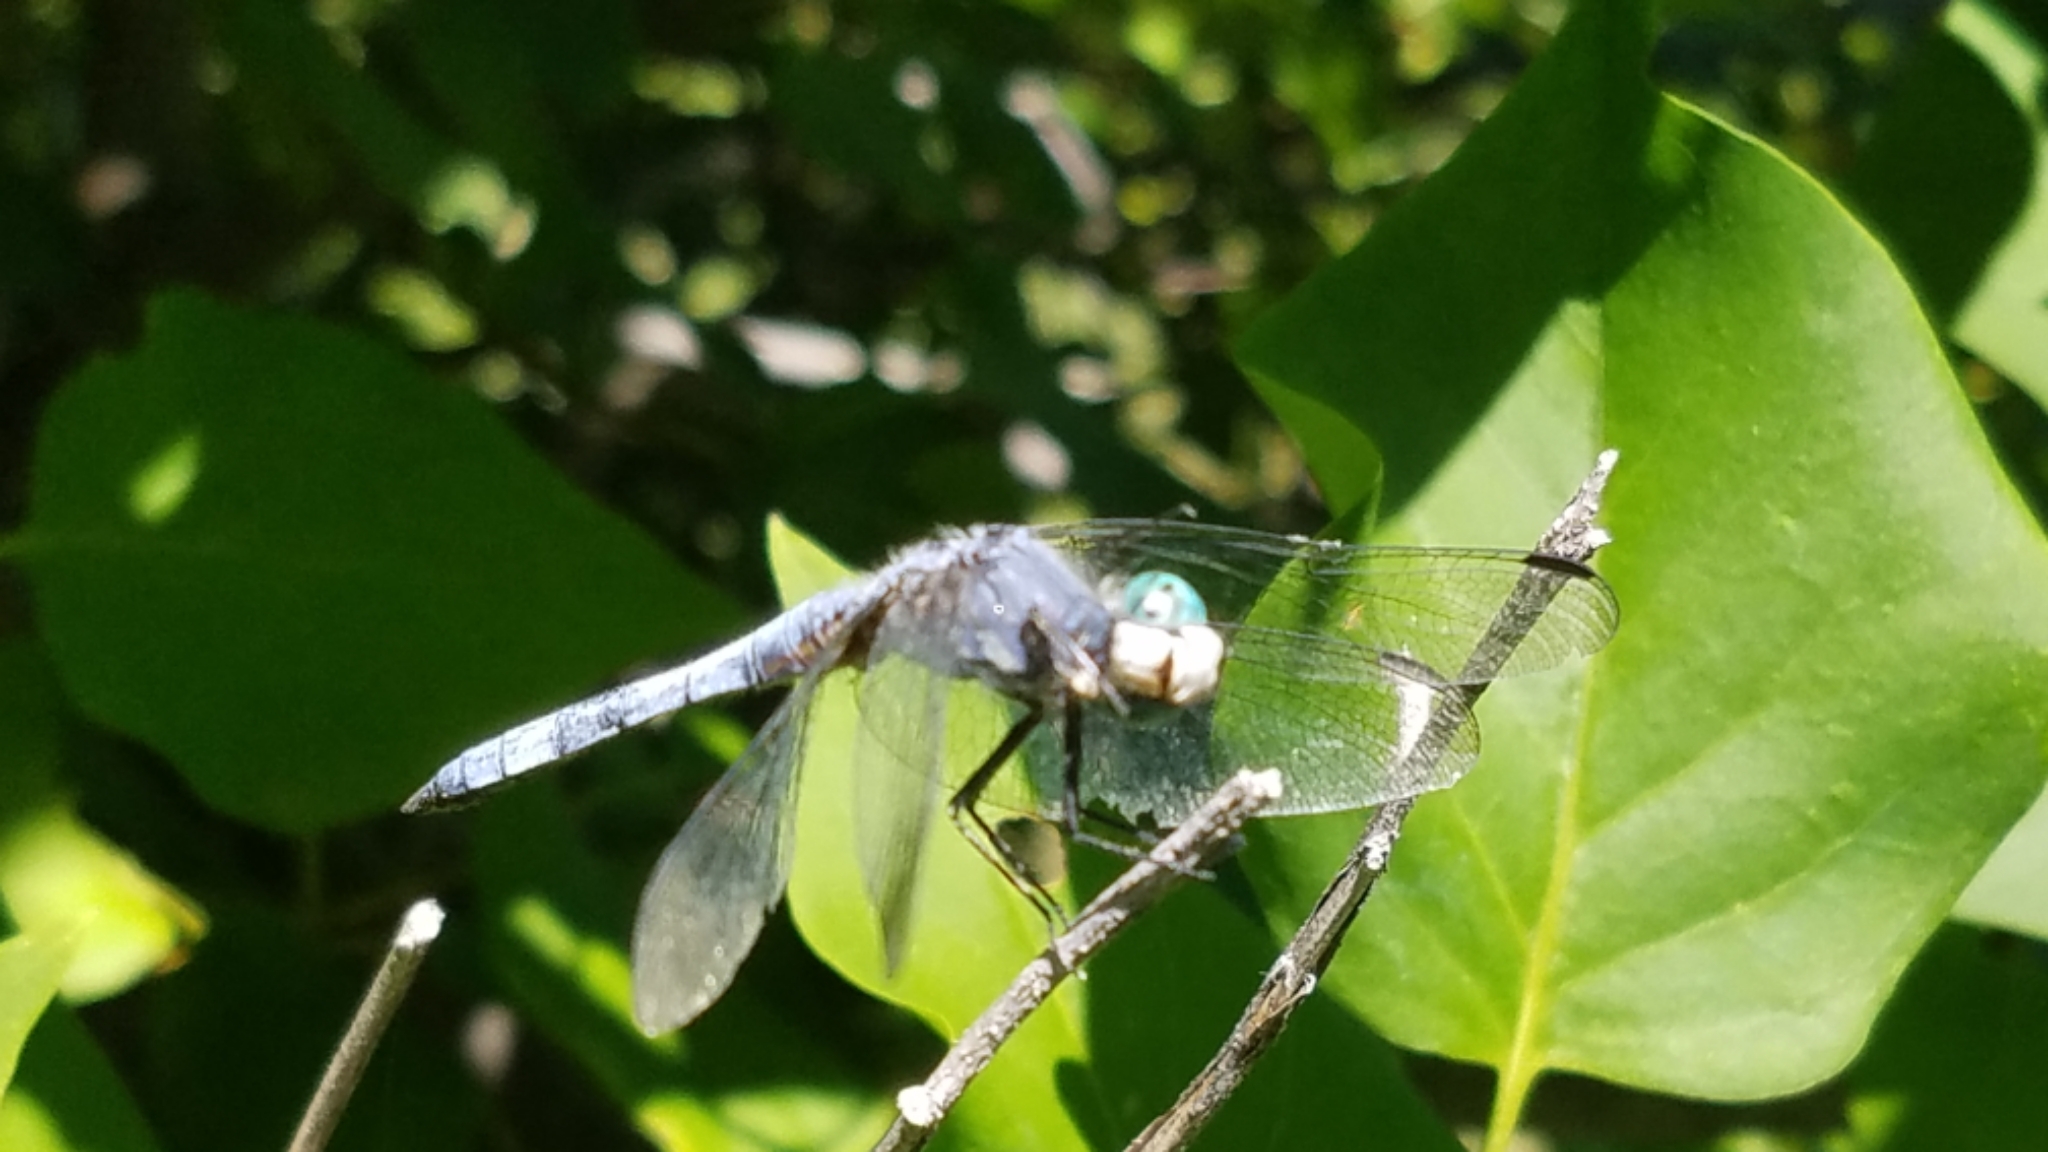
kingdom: Animalia
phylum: Arthropoda
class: Insecta
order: Odonata
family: Libellulidae
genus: Pachydiplax
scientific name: Pachydiplax longipennis
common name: Blue dasher
